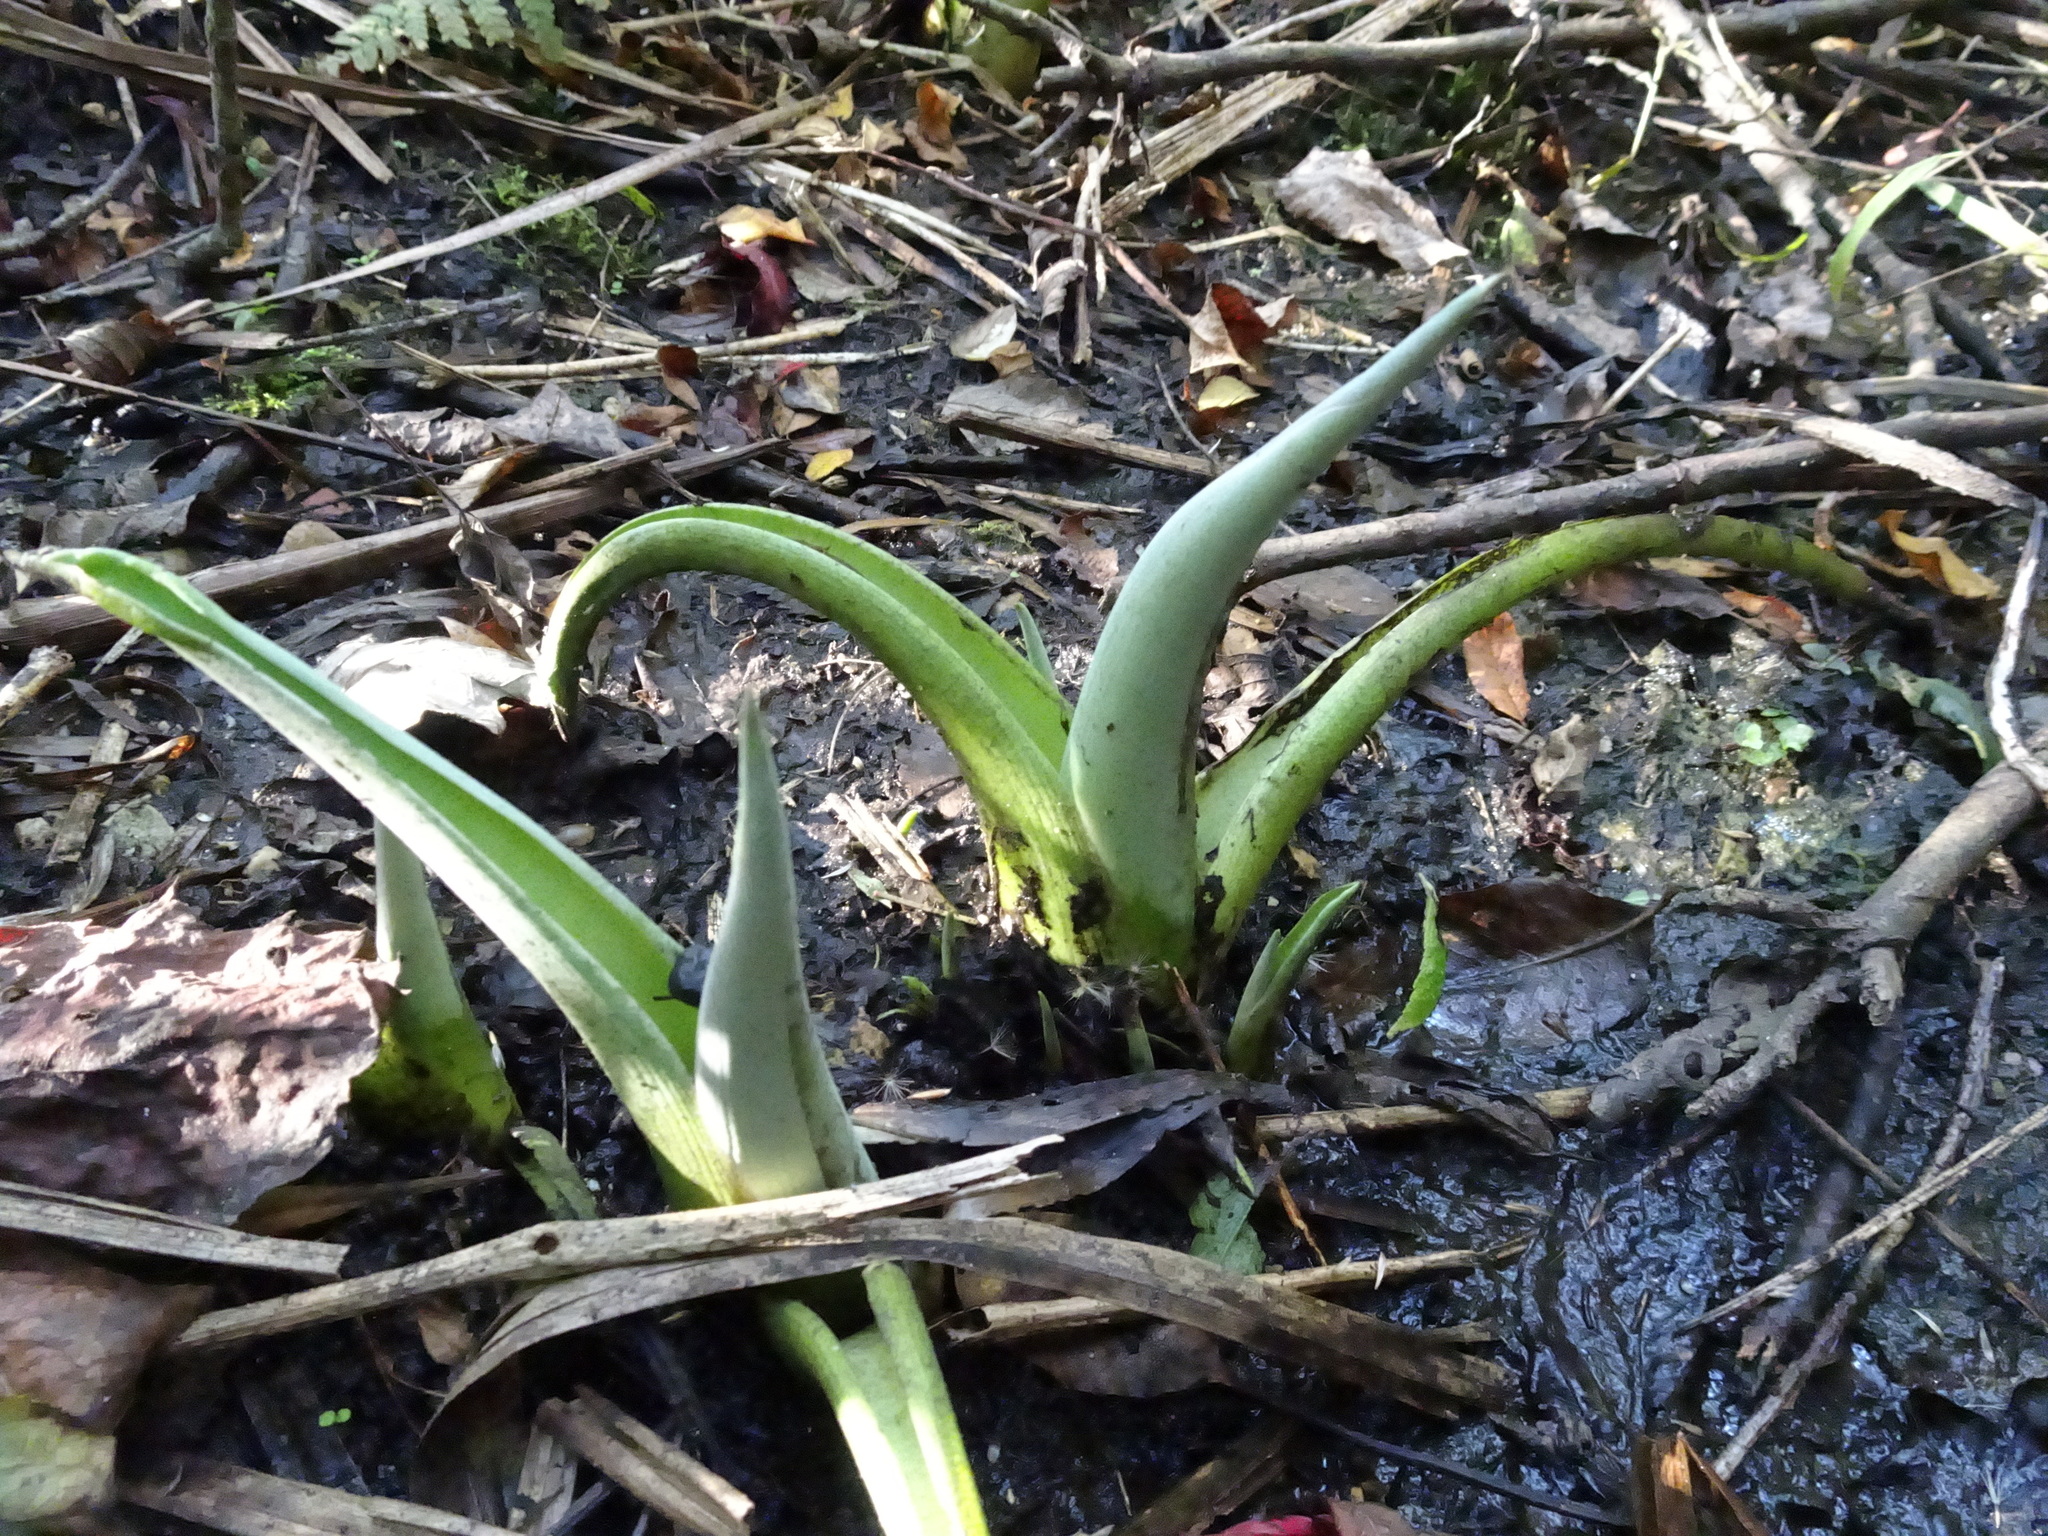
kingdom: Plantae
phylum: Tracheophyta
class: Liliopsida
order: Alismatales
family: Araceae
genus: Symplocarpus
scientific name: Symplocarpus foetidus
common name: Eastern skunk cabbage
